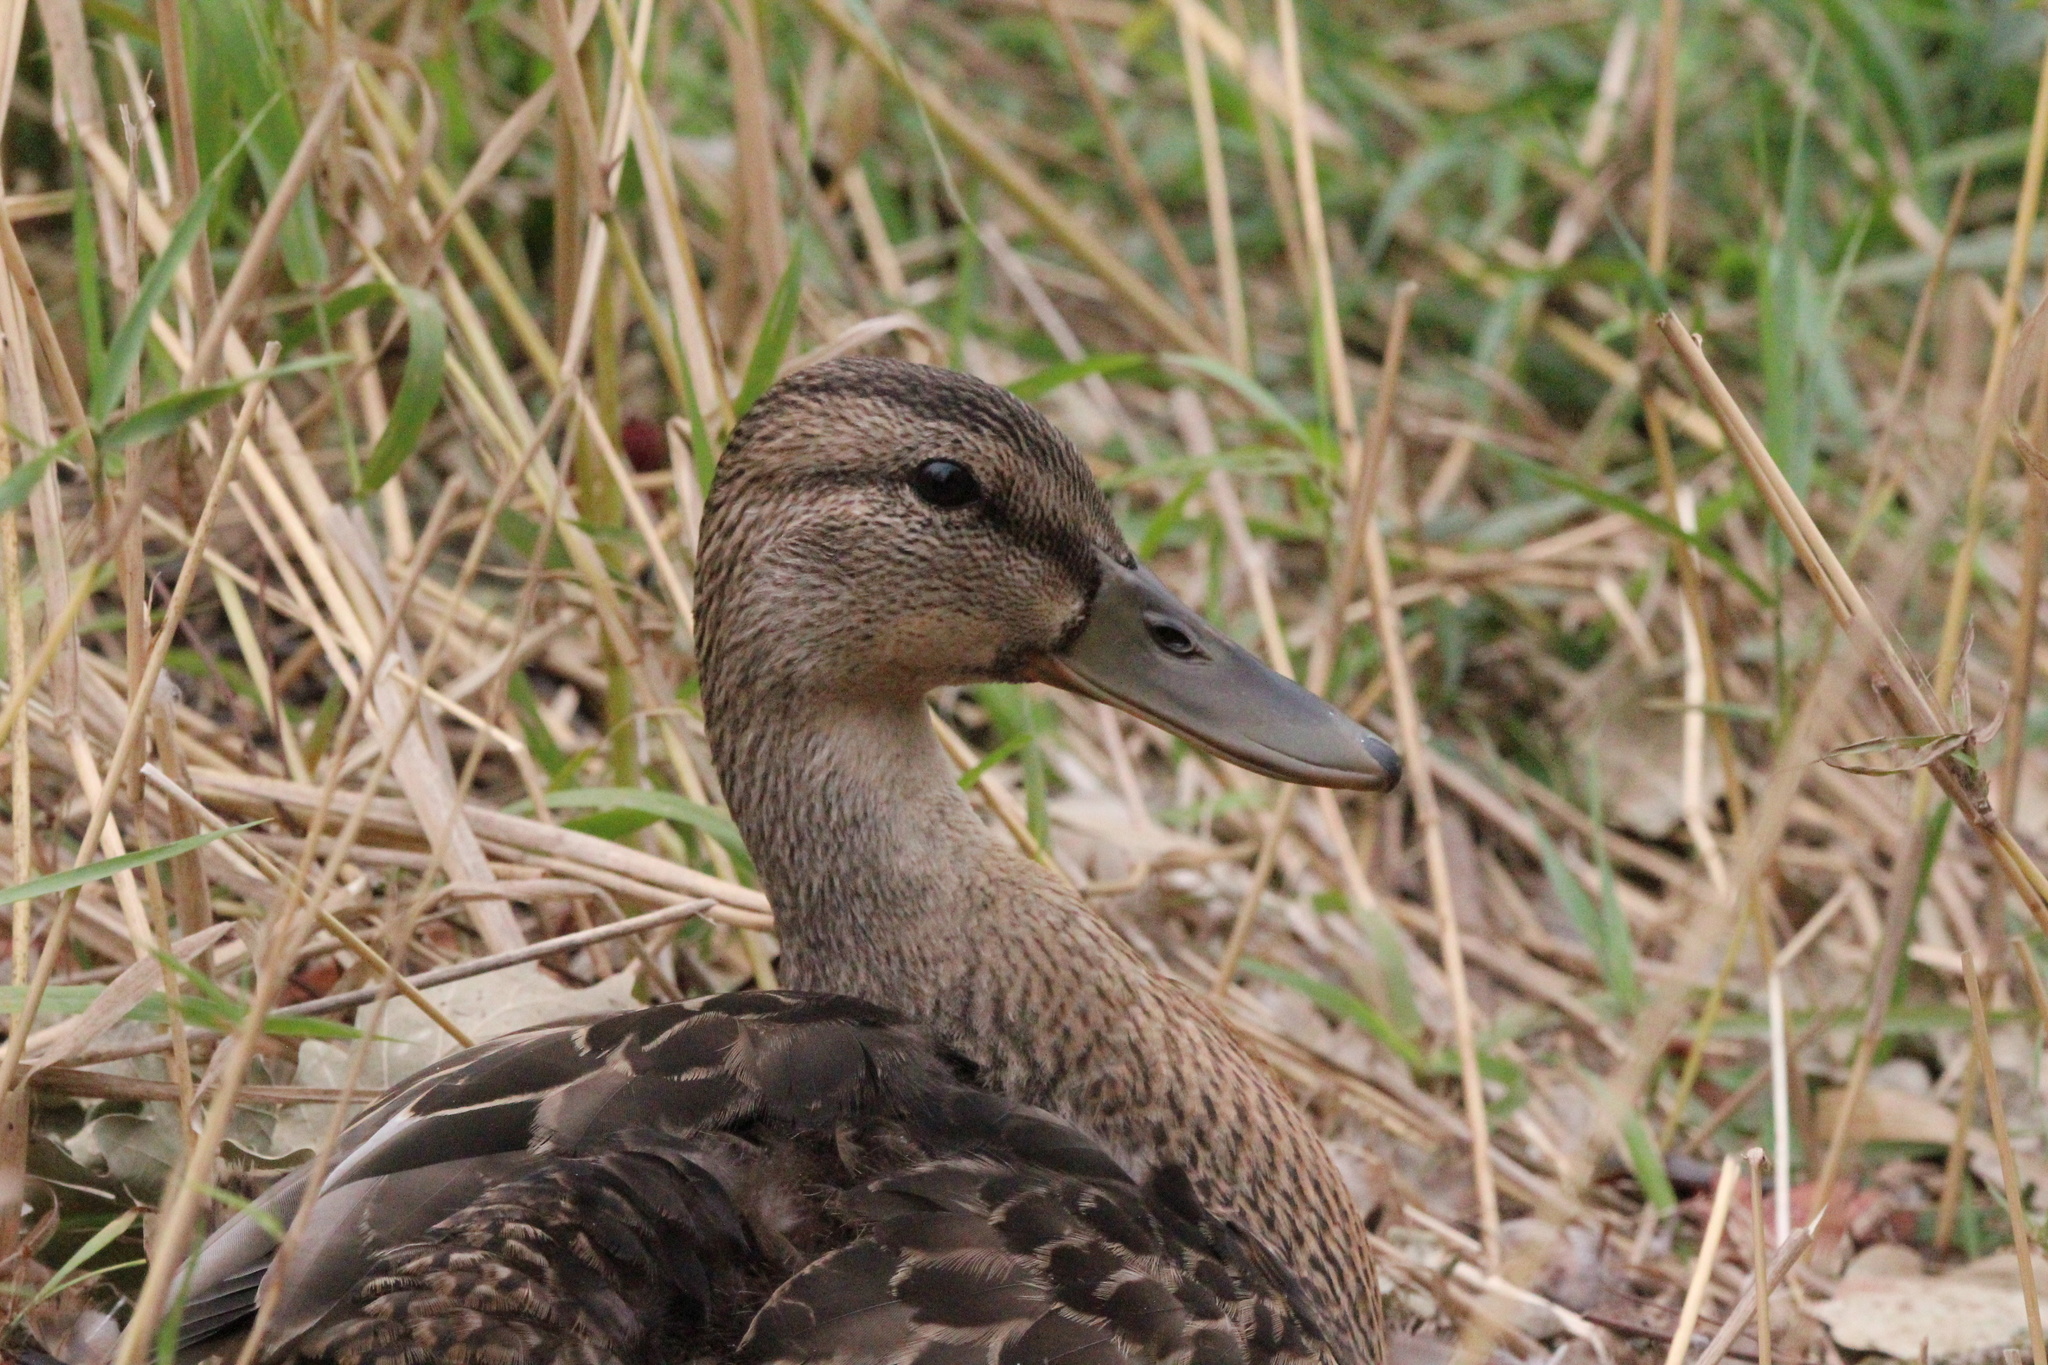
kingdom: Animalia
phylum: Chordata
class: Aves
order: Anseriformes
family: Anatidae
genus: Anas
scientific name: Anas platyrhynchos
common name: Mallard
